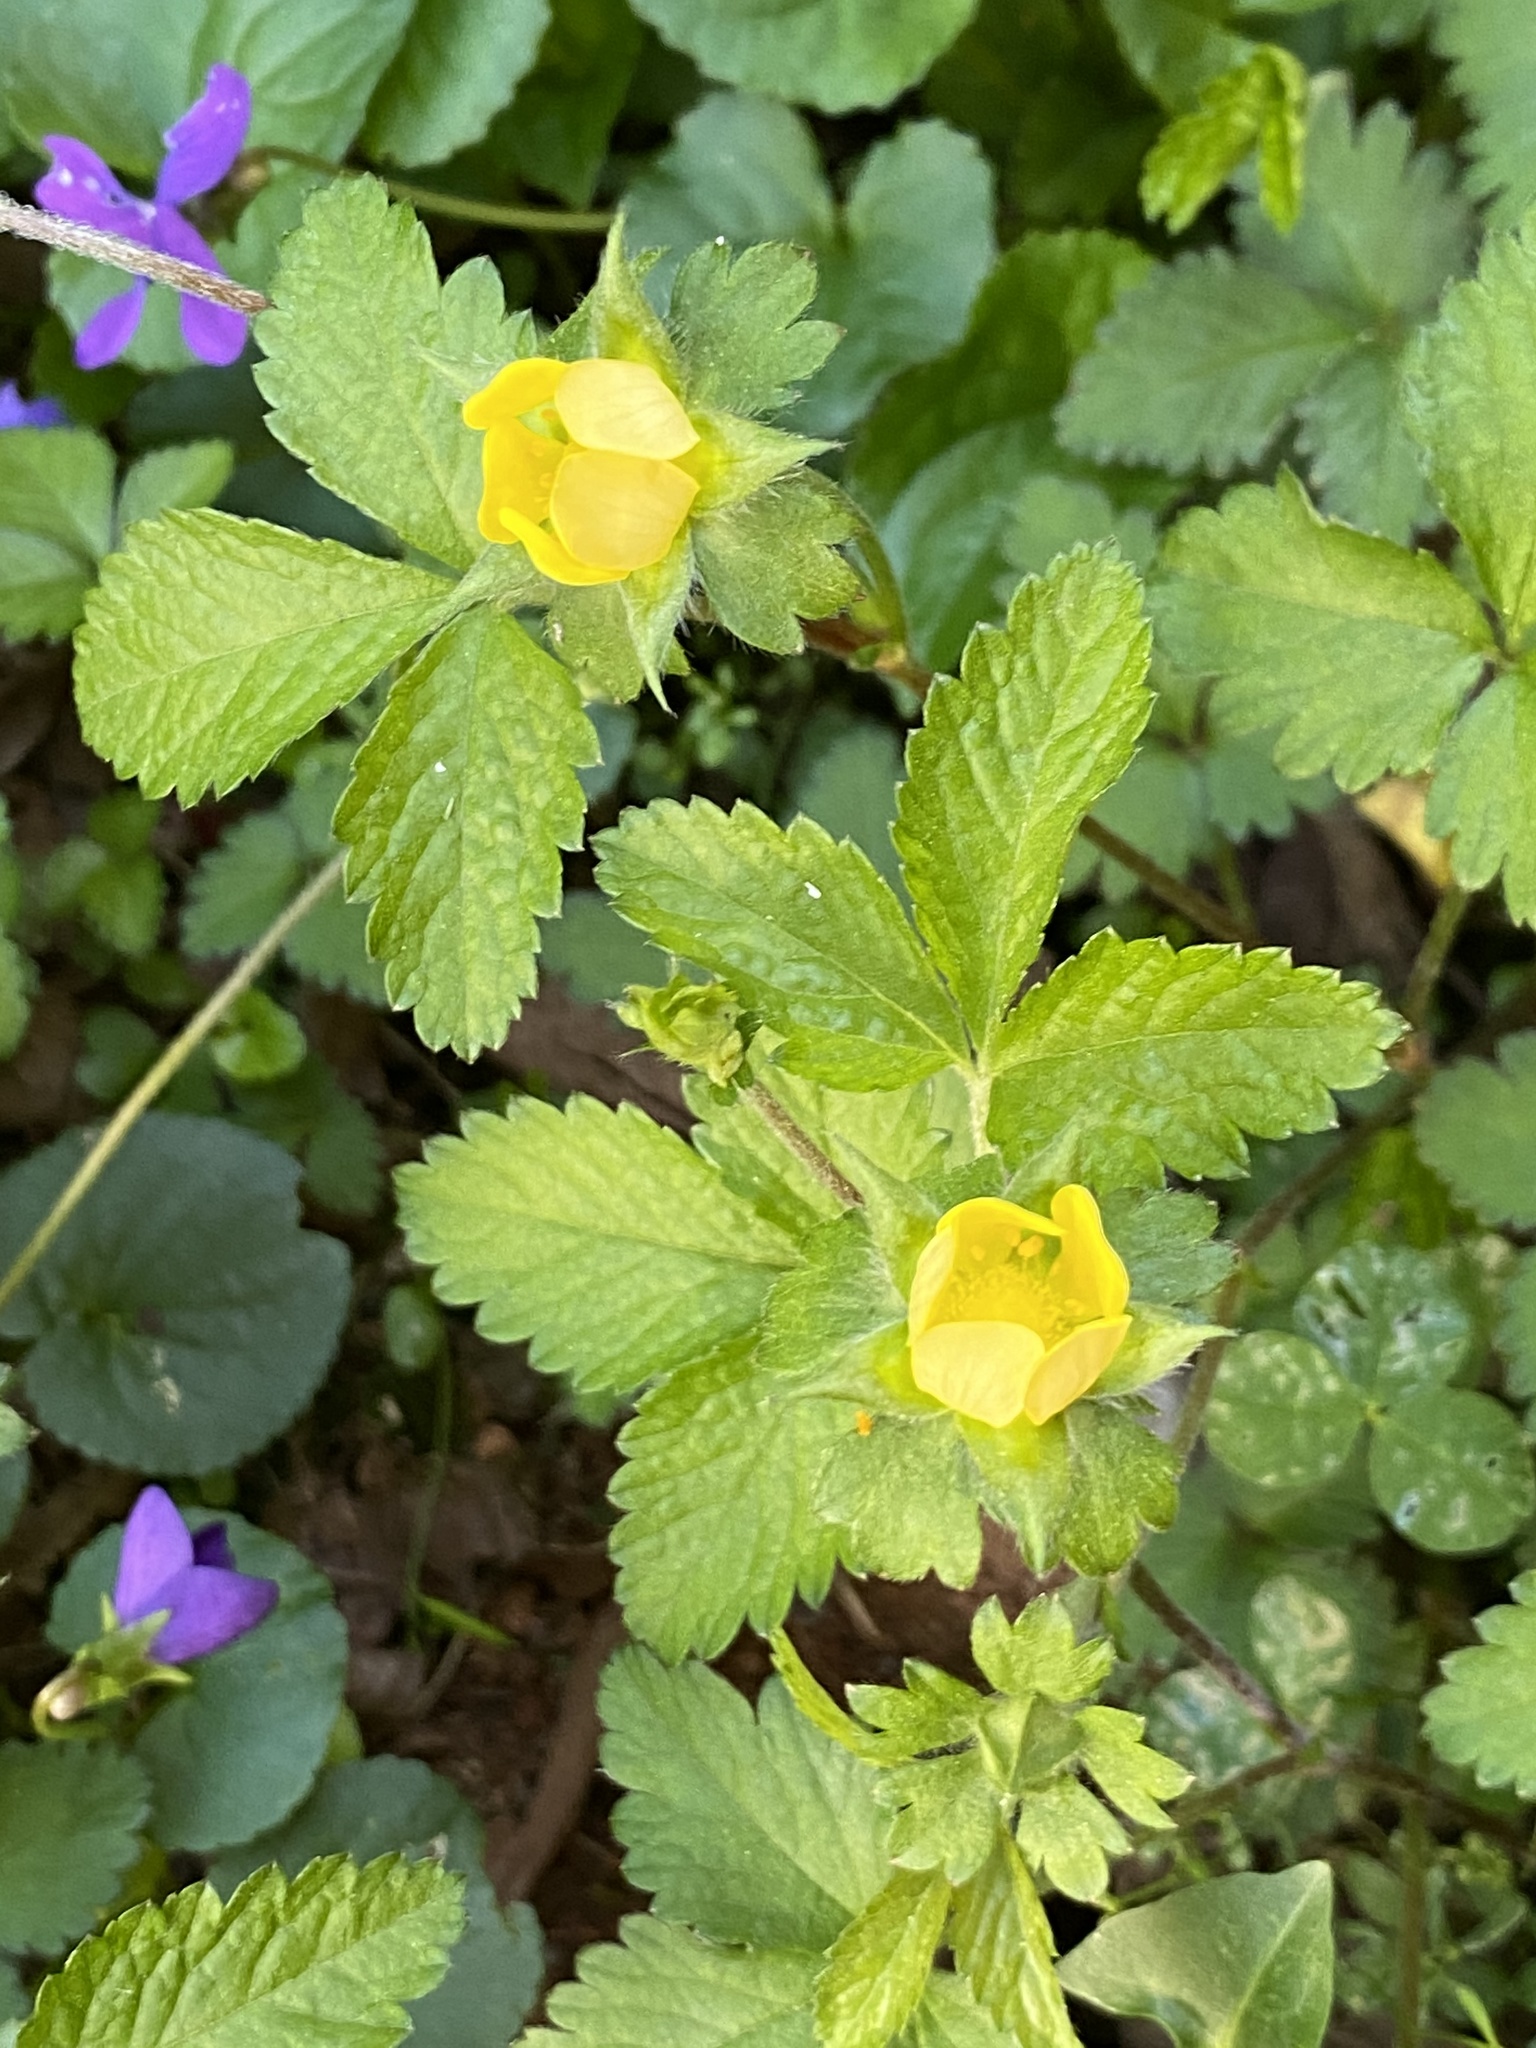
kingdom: Plantae
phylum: Tracheophyta
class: Magnoliopsida
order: Rosales
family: Rosaceae
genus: Potentilla
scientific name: Potentilla indica
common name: Yellow-flowered strawberry
